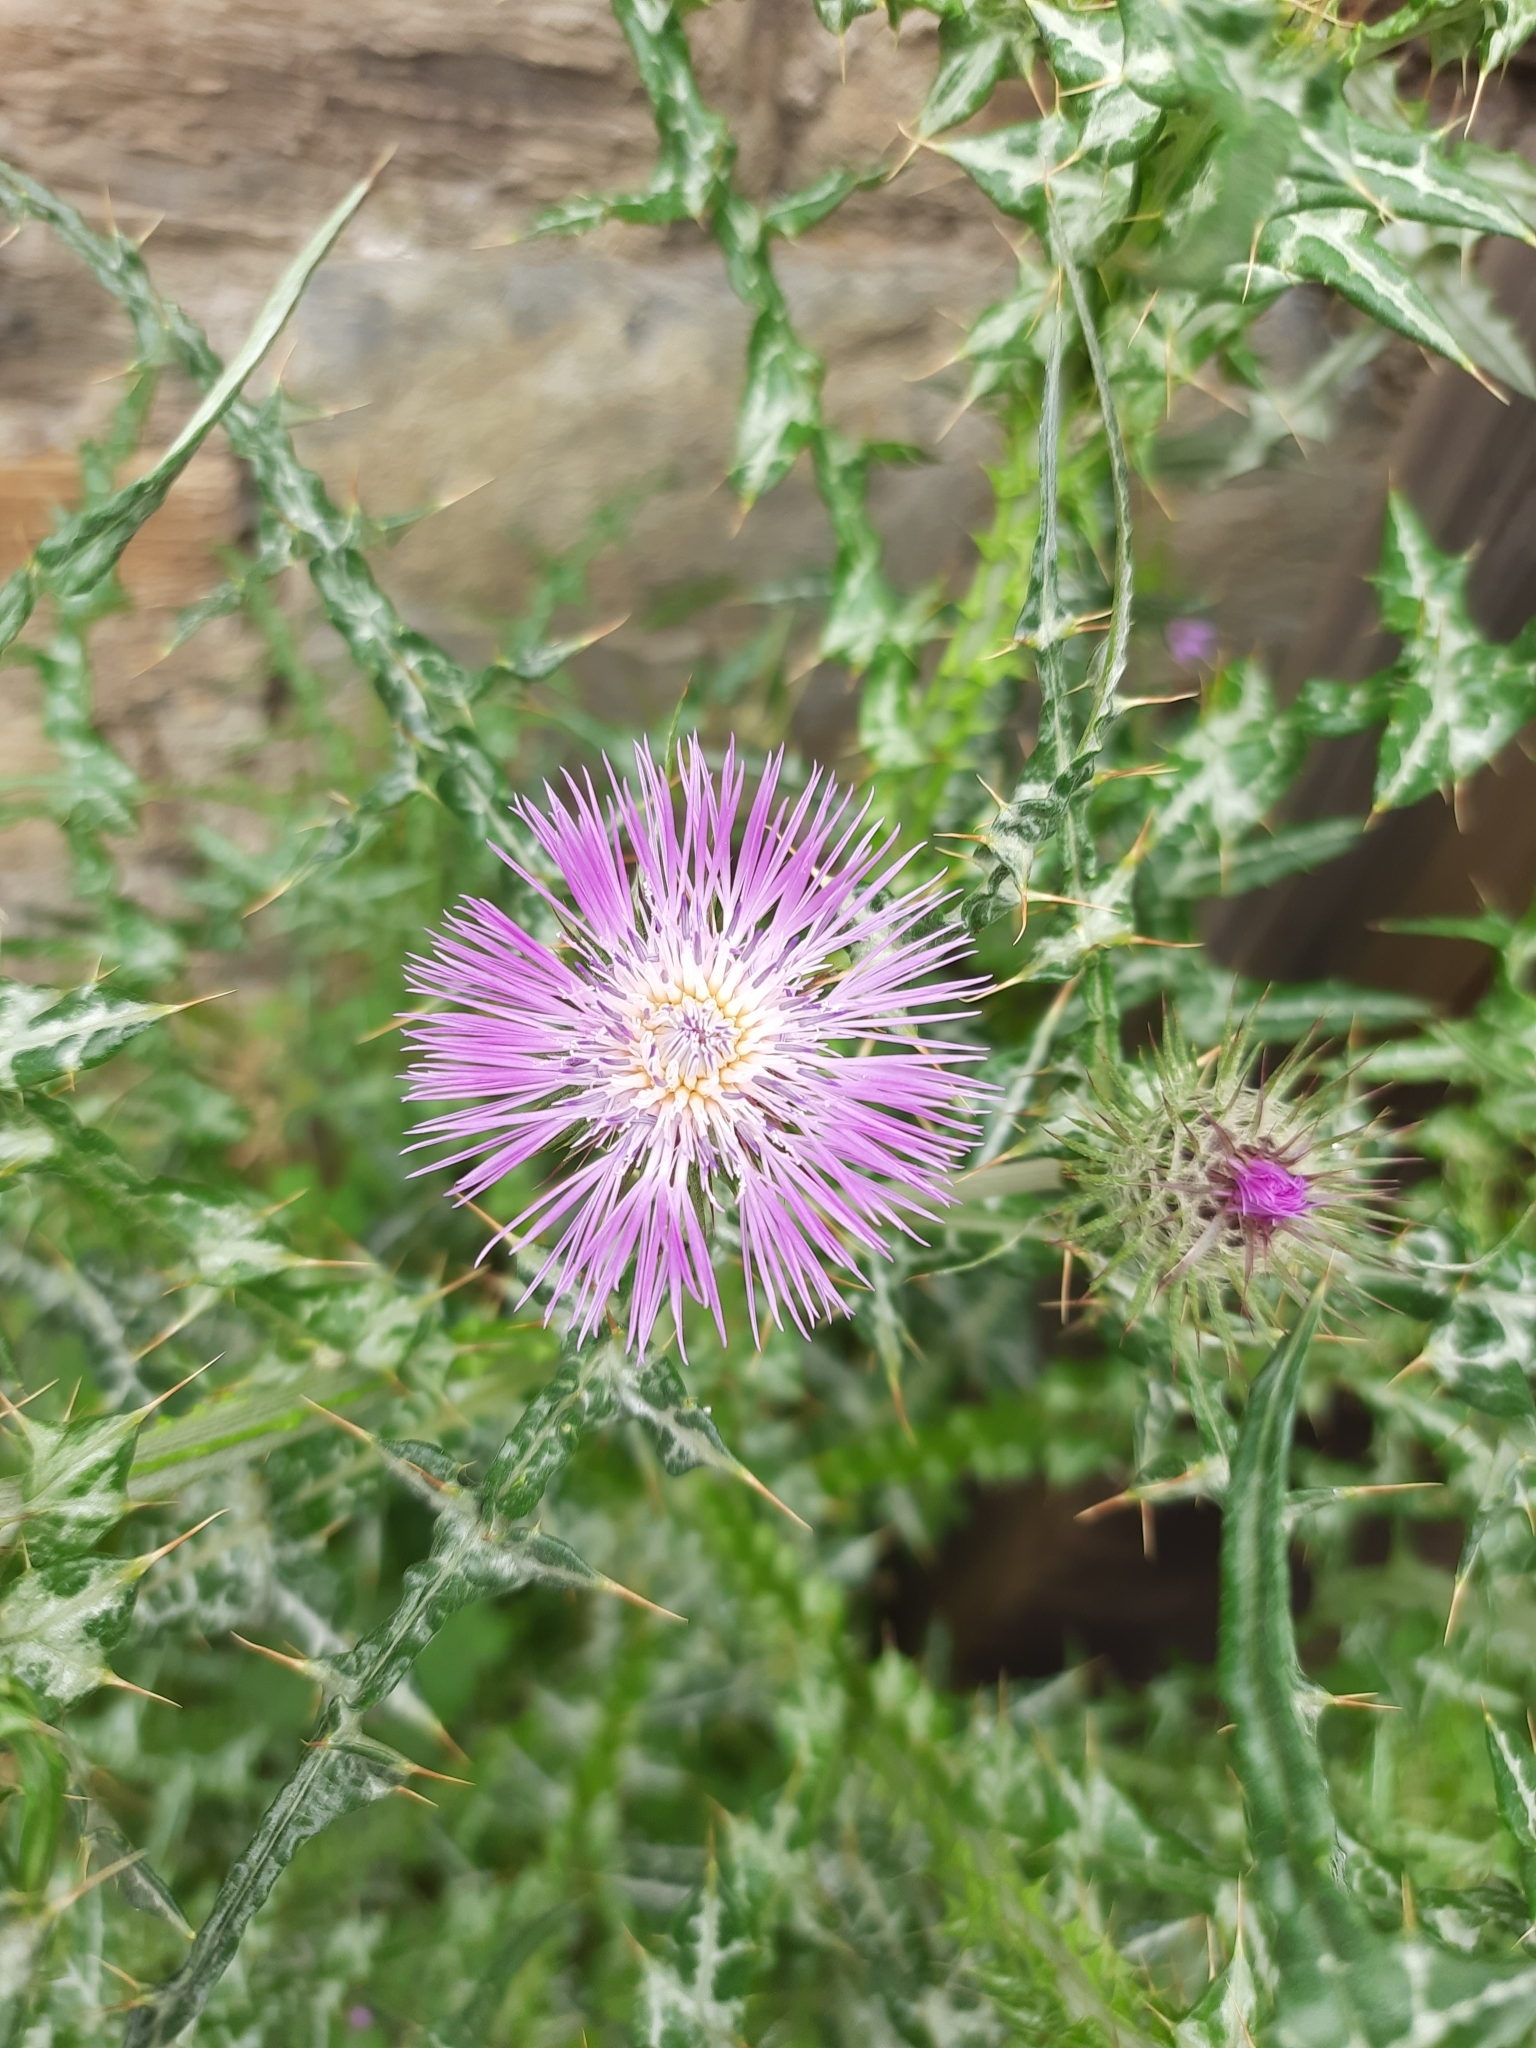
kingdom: Plantae
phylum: Tracheophyta
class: Magnoliopsida
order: Asterales
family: Asteraceae
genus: Galactites
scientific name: Galactites tomentosa
